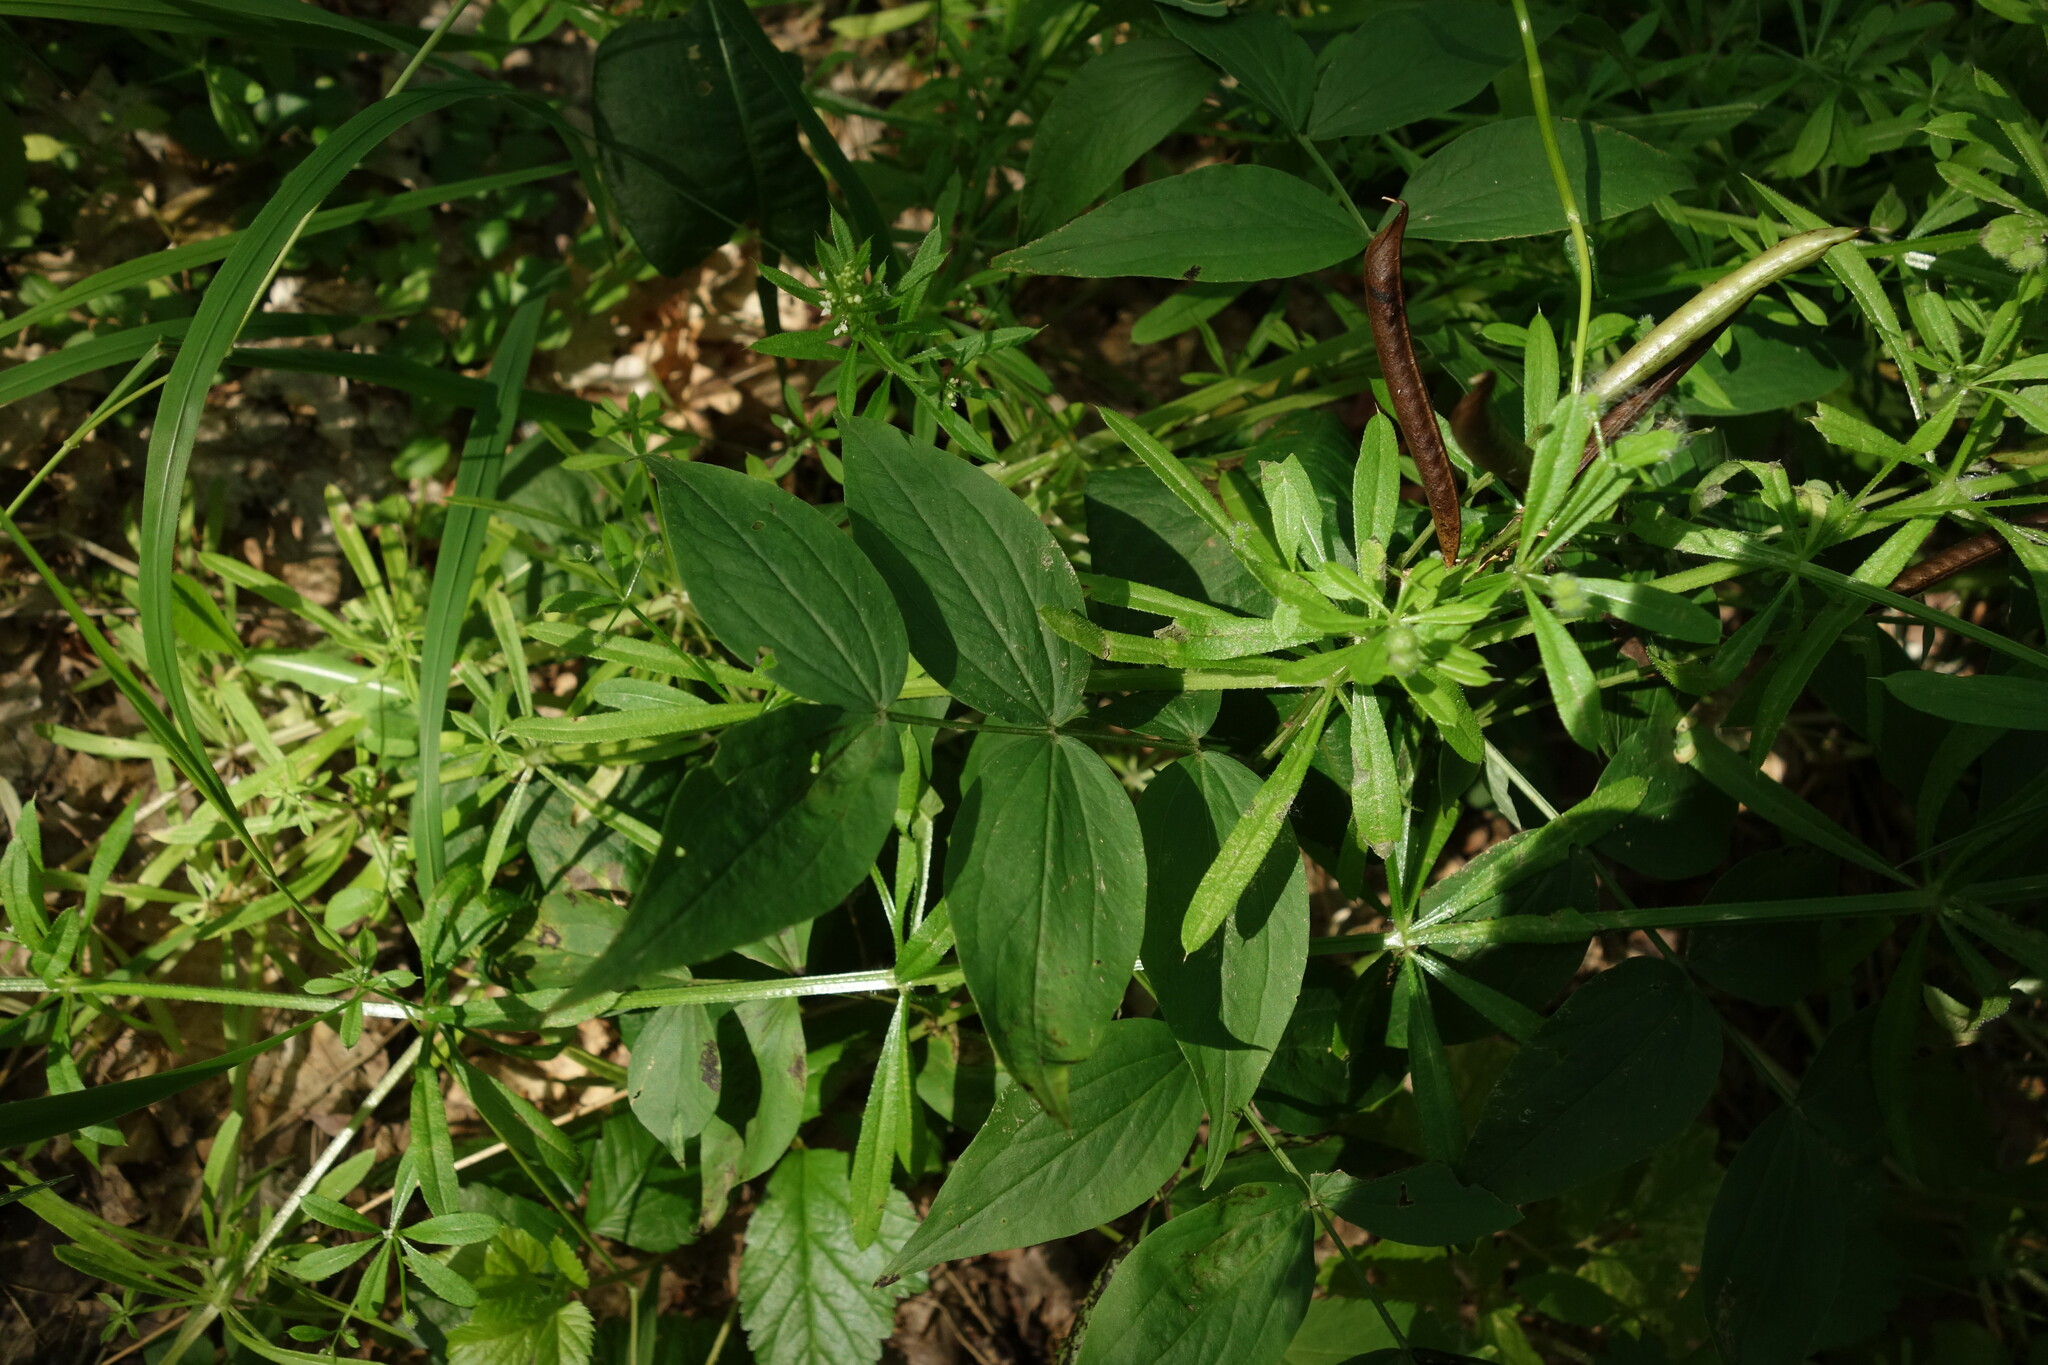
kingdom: Plantae
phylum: Tracheophyta
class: Magnoliopsida
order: Fabales
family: Fabaceae
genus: Lathyrus
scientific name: Lathyrus vernus
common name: Spring pea
